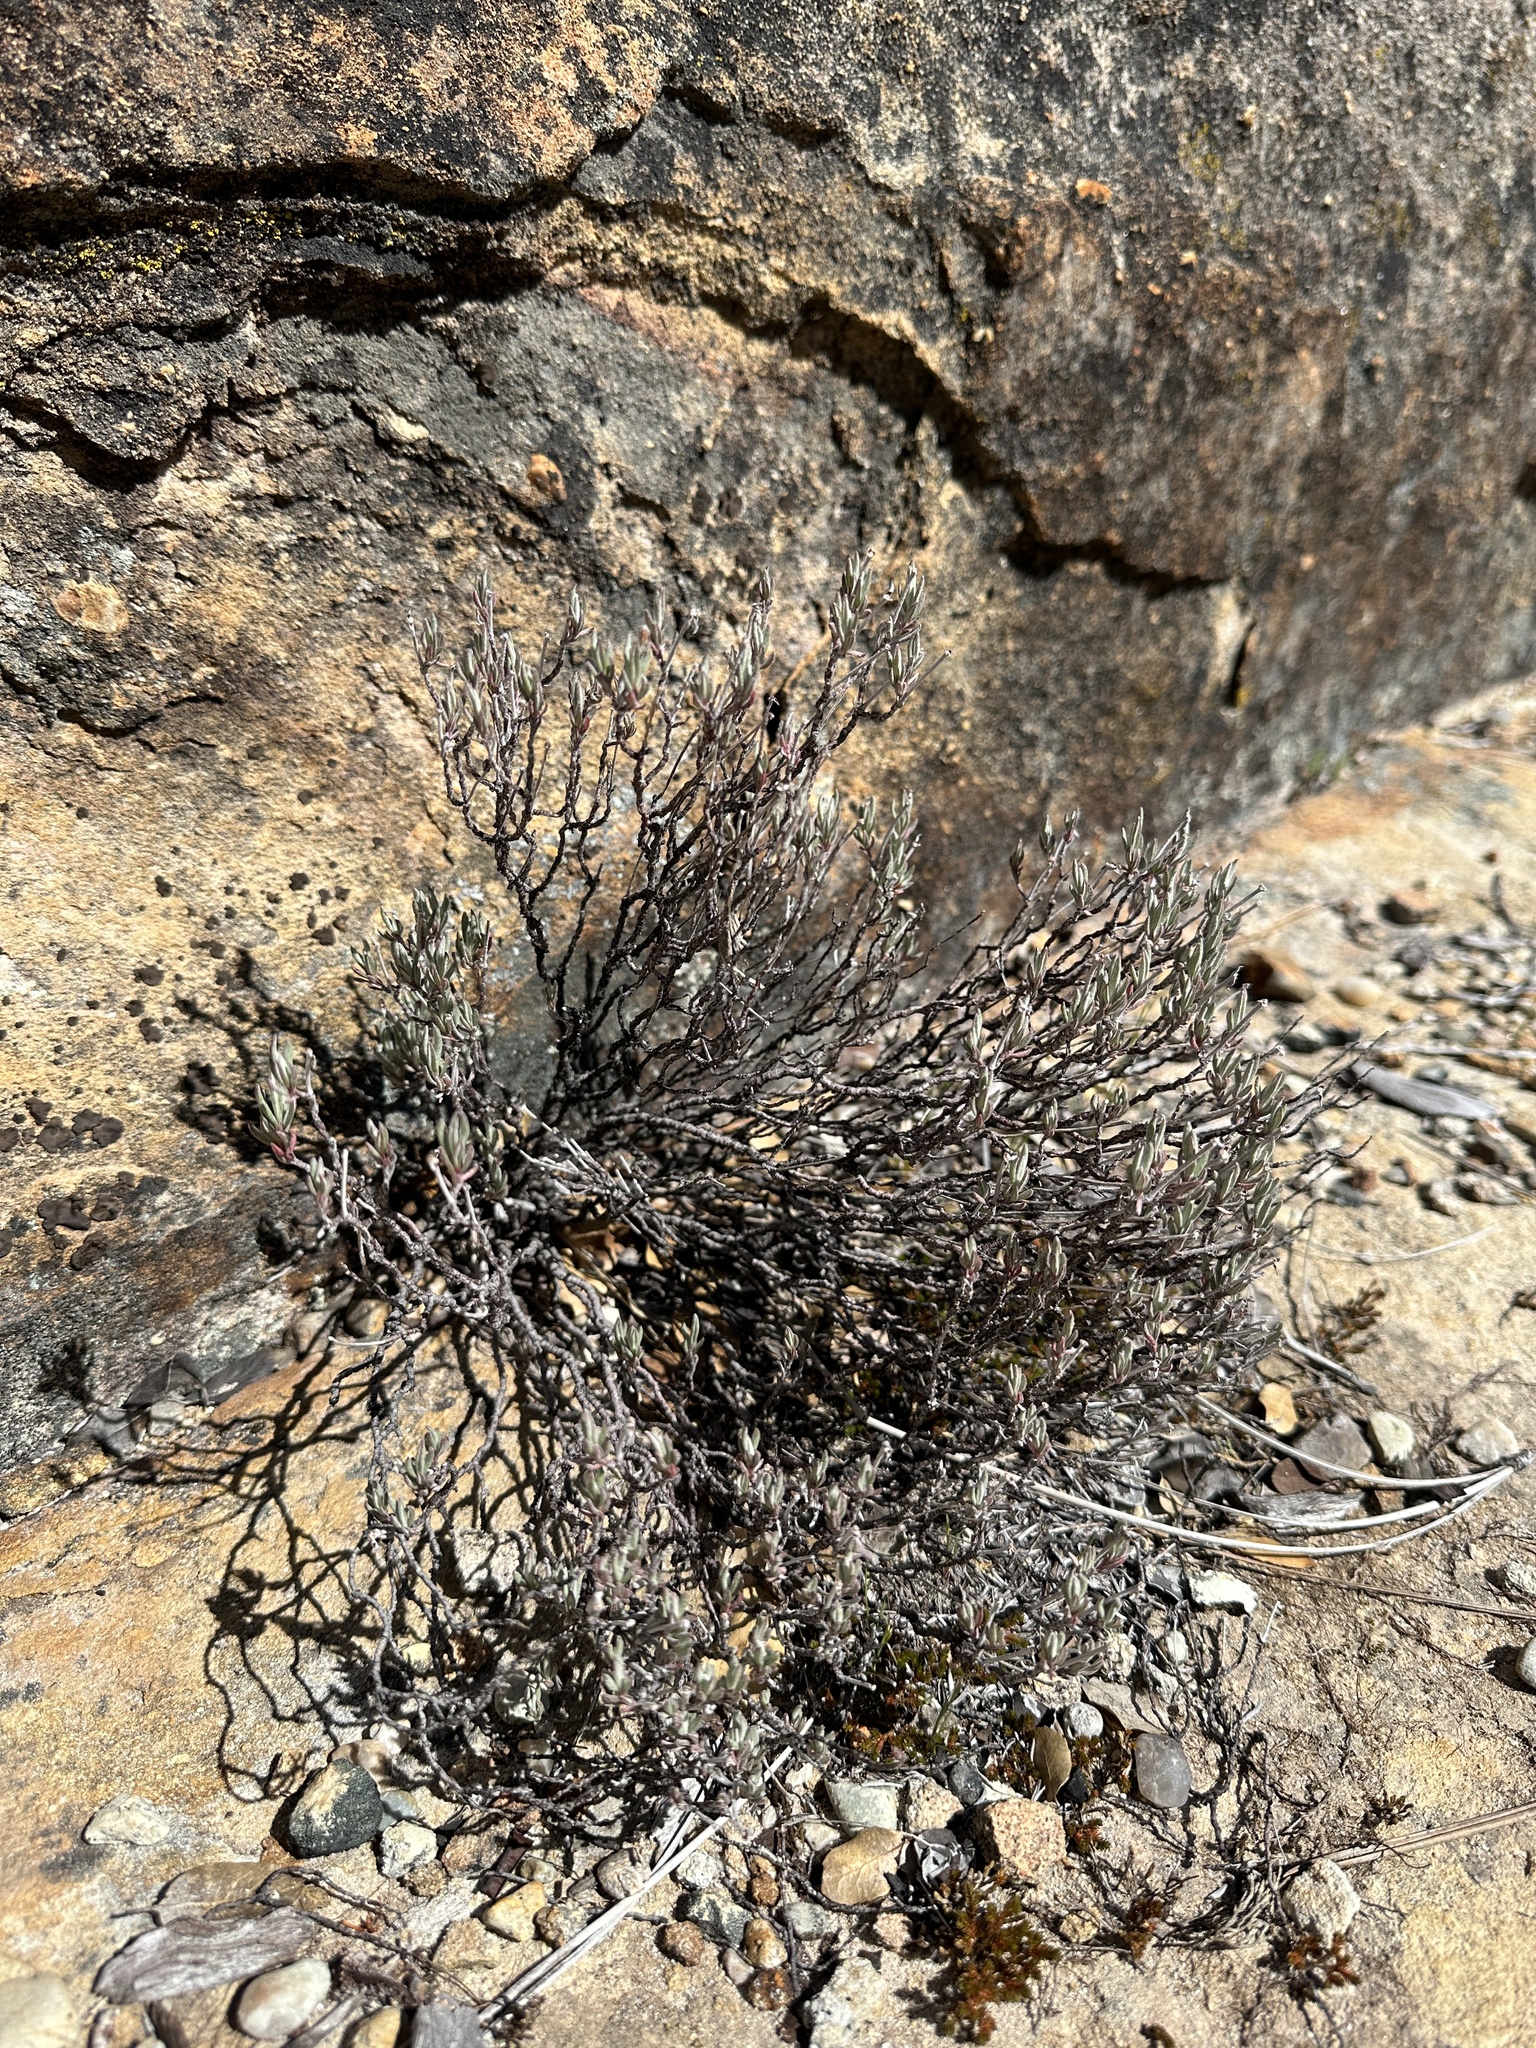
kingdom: Plantae
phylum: Tracheophyta
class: Magnoliopsida
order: Caryophyllales
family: Polygonaceae
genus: Eriogonum
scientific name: Eriogonum butterworthianum
